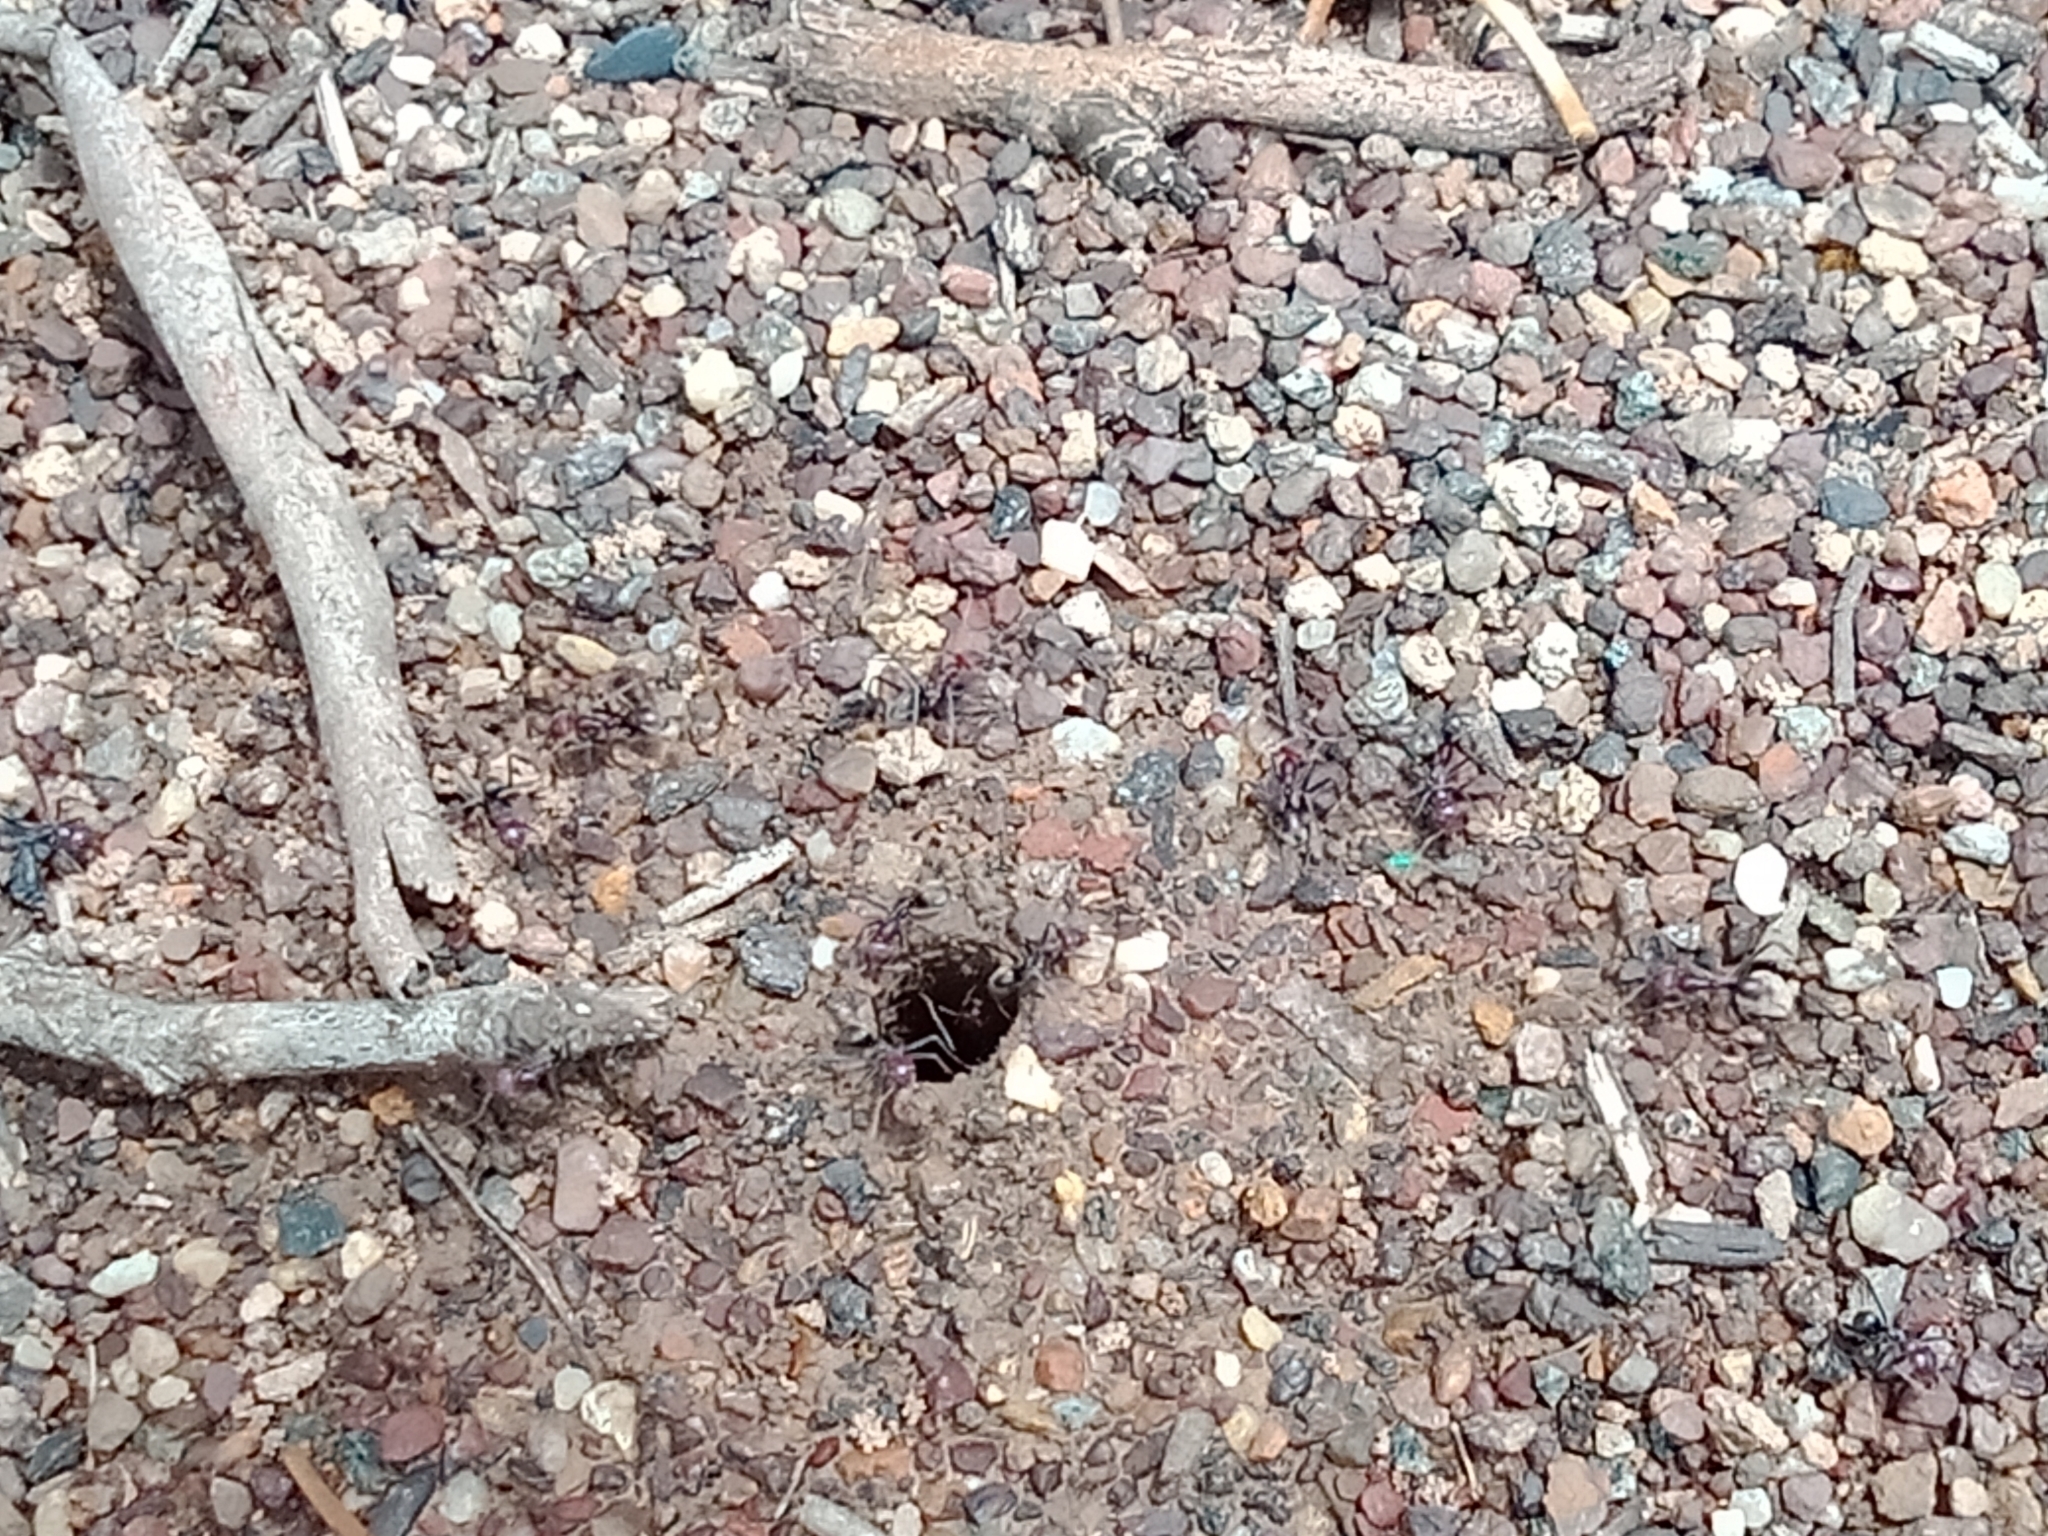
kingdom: Animalia
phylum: Arthropoda
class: Insecta
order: Hymenoptera
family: Formicidae
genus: Iridomyrmex
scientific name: Iridomyrmex purpureus
